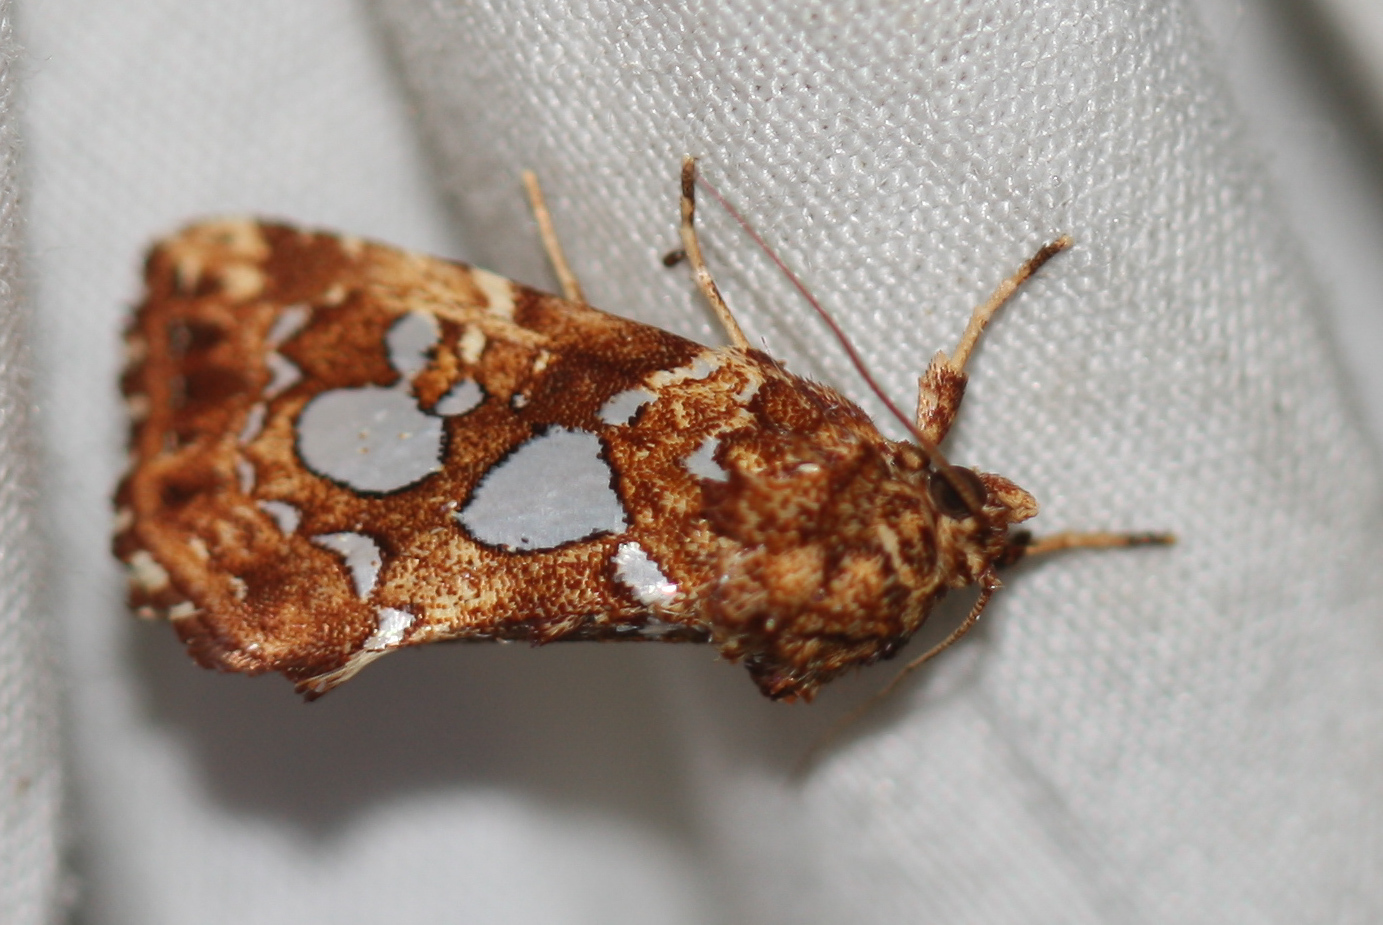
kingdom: Animalia
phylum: Arthropoda
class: Insecta
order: Lepidoptera
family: Noctuidae
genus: Callopistria
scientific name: Callopistria cordata
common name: Silver-spotted fern moth
